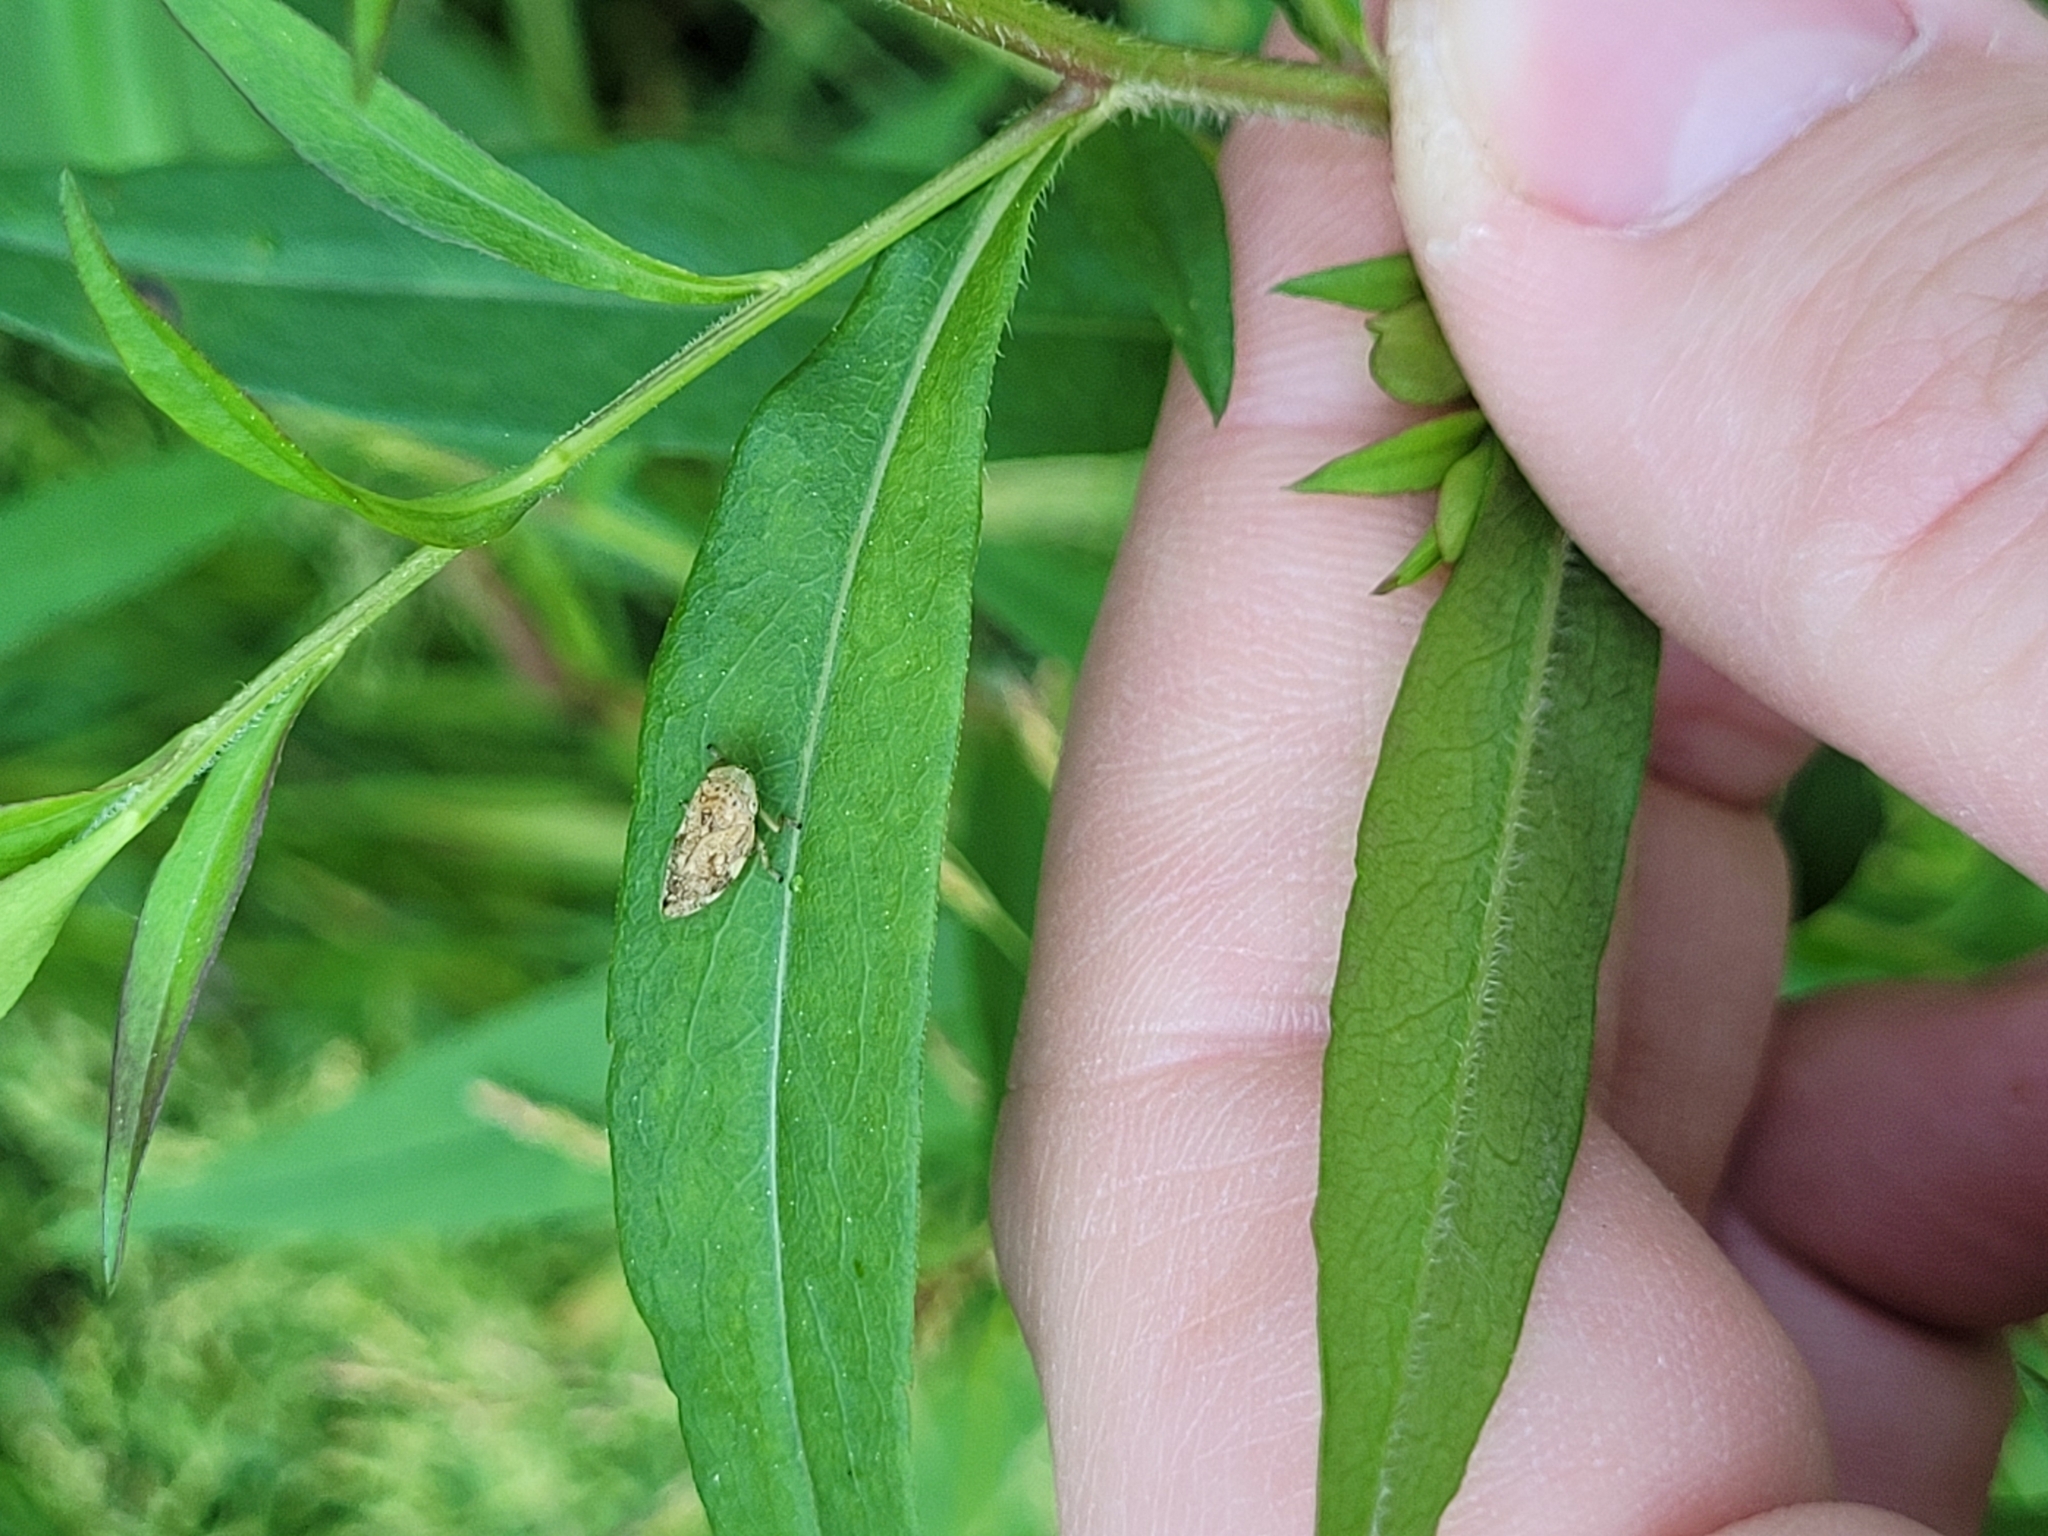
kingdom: Animalia
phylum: Arthropoda
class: Insecta
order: Hemiptera
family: Aphrophoridae
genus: Philaenus
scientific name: Philaenus spumarius
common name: Meadow spittlebug
